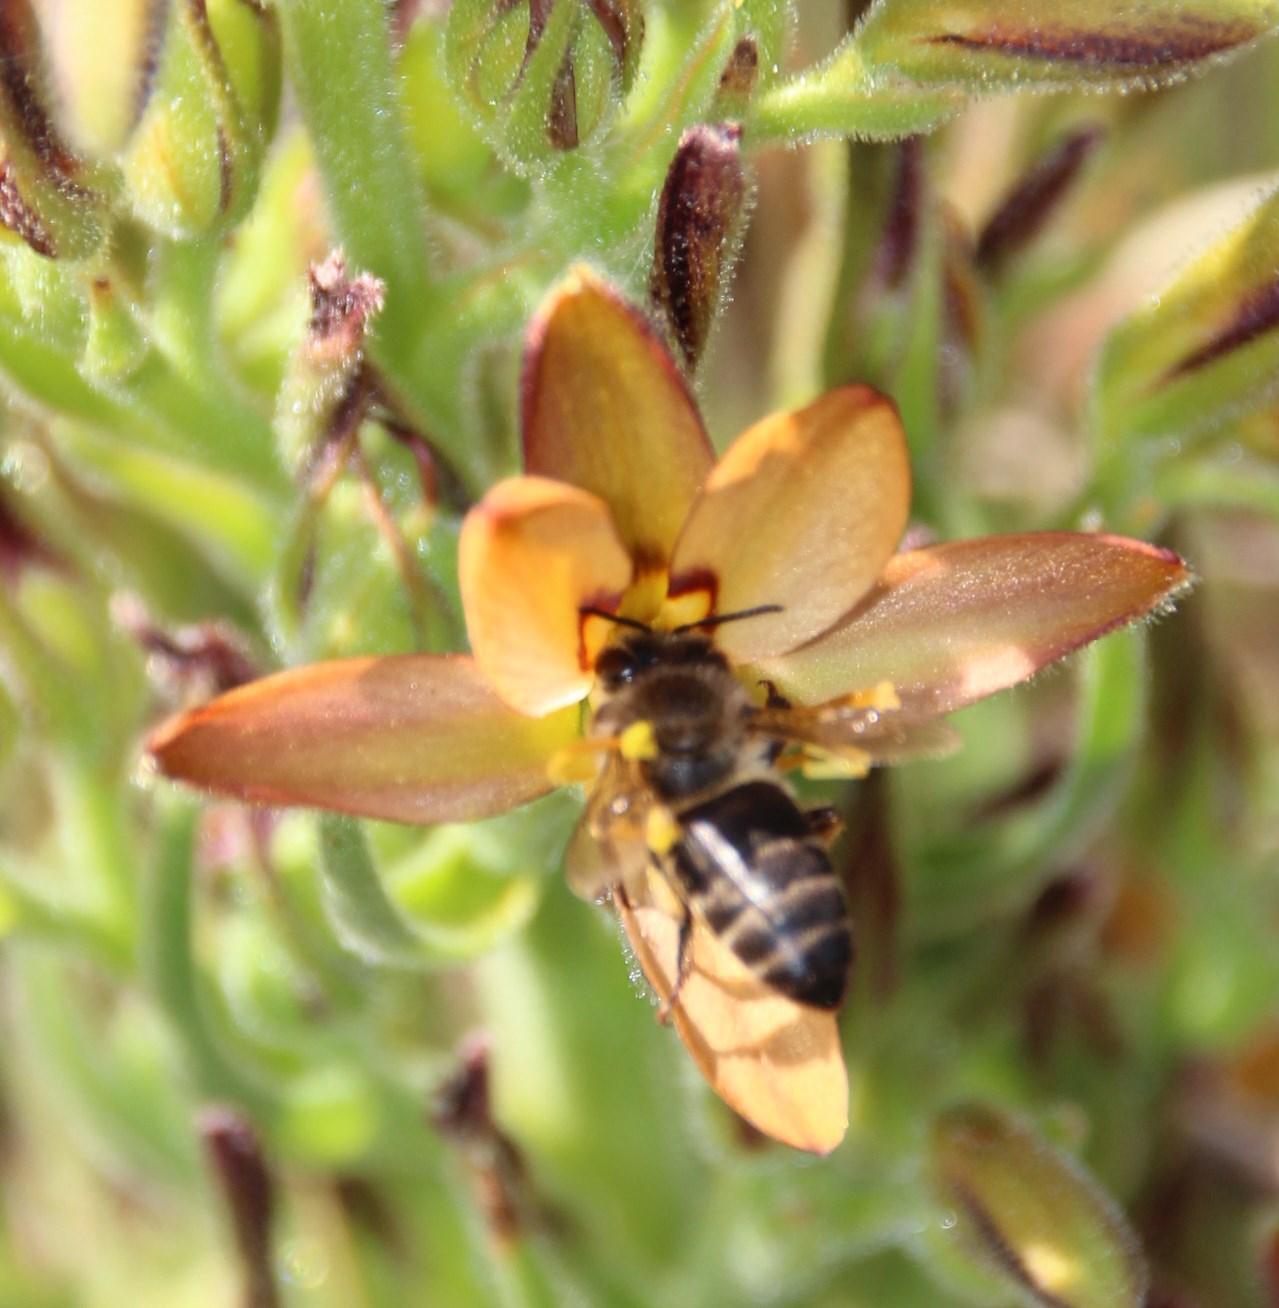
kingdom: Animalia
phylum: Arthropoda
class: Insecta
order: Hymenoptera
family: Apidae
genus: Apis
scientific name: Apis mellifera
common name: Honey bee
